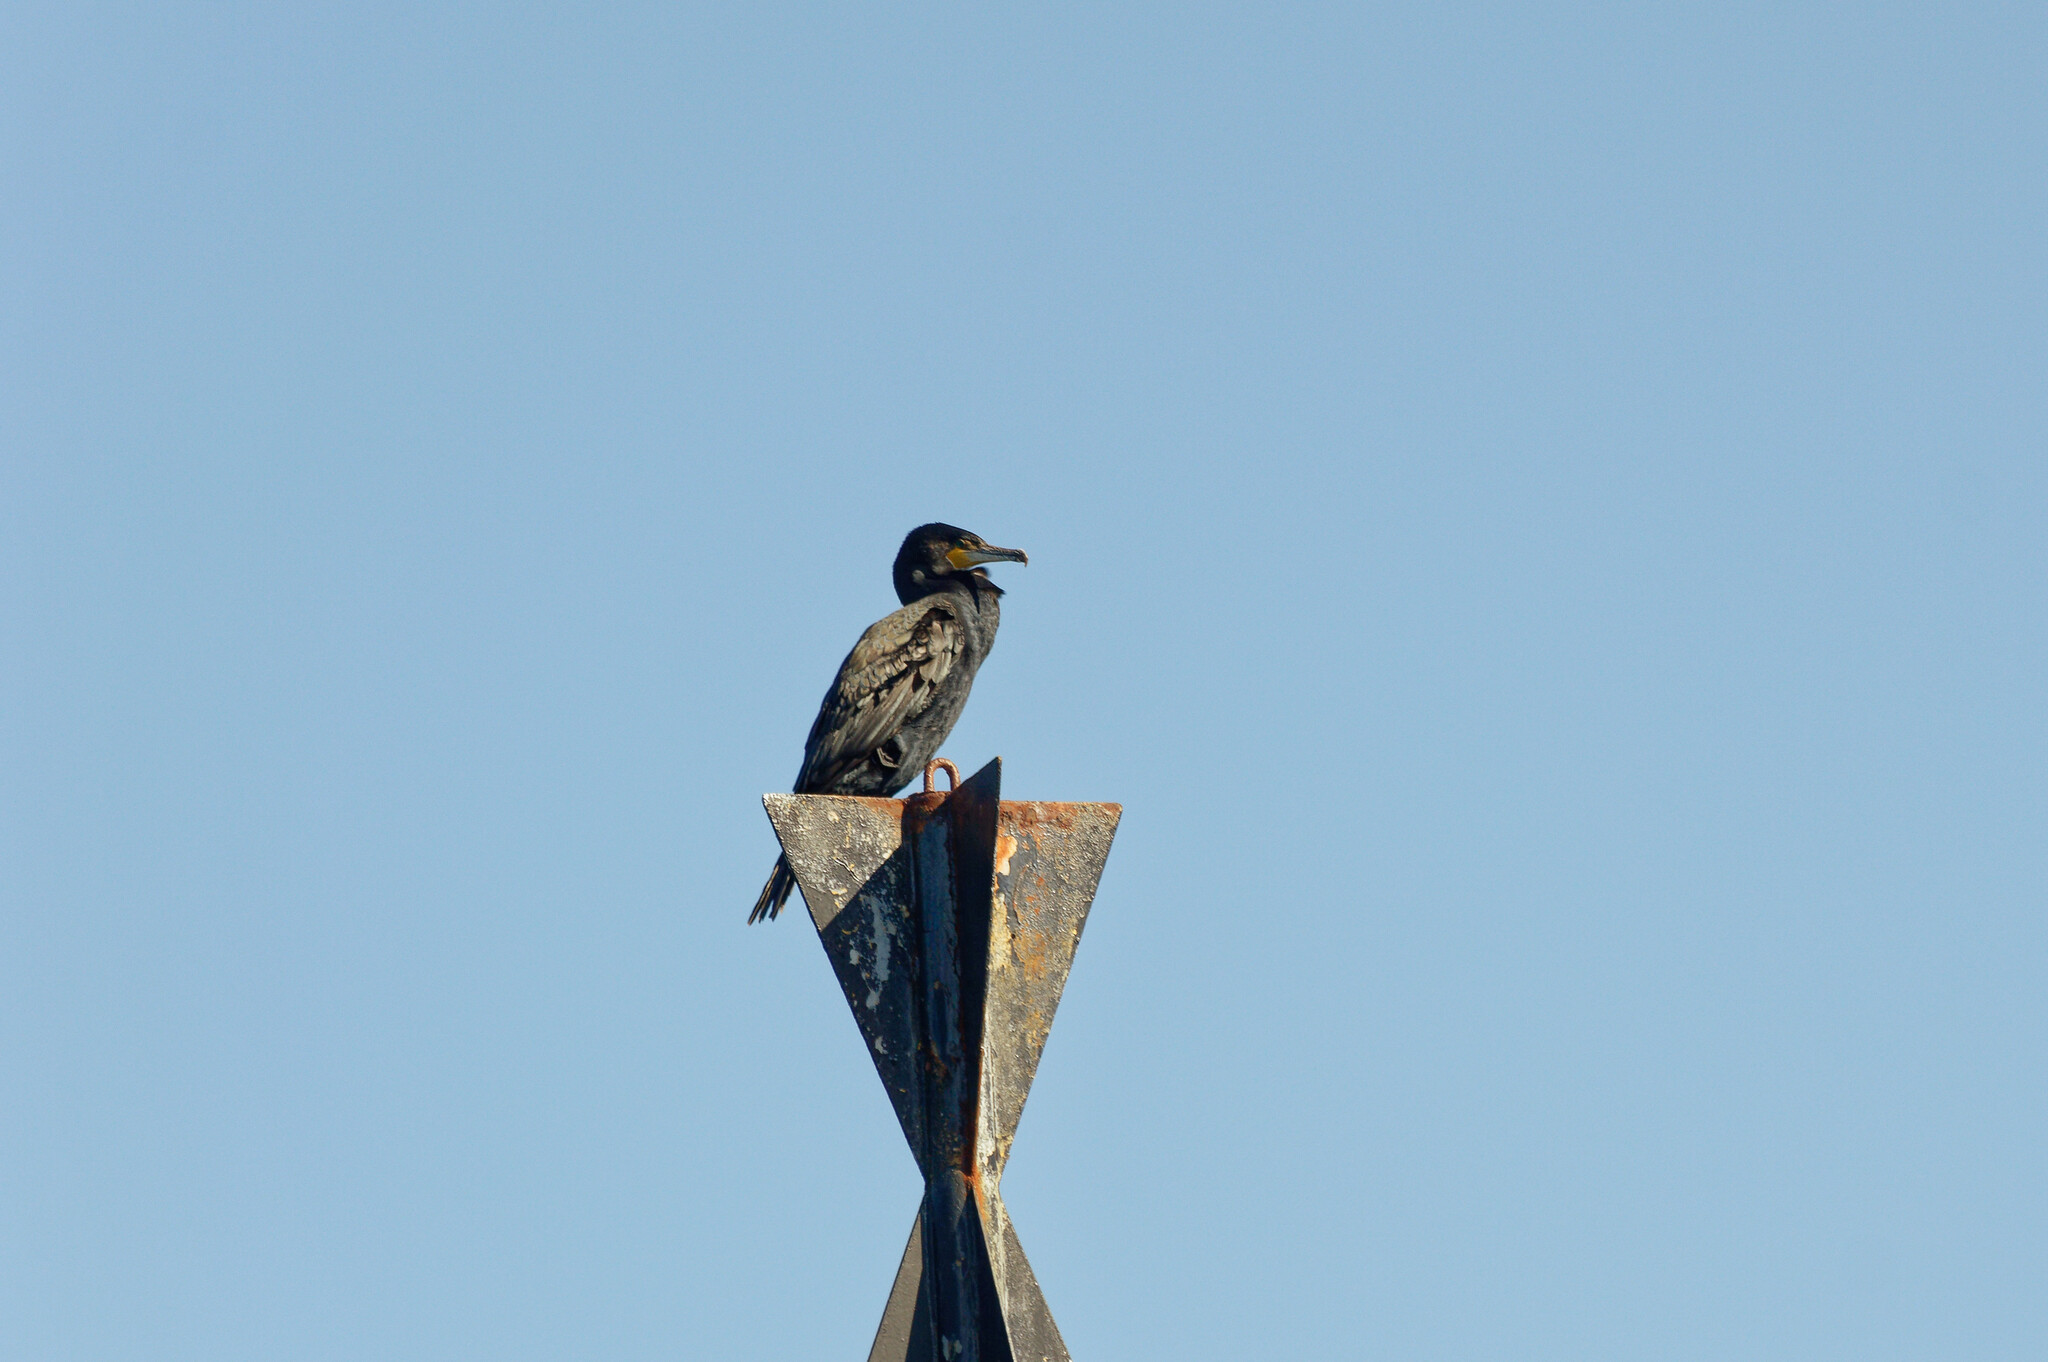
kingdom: Animalia
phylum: Chordata
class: Aves
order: Suliformes
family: Phalacrocoracidae
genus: Phalacrocorax
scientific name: Phalacrocorax carbo
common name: Great cormorant
